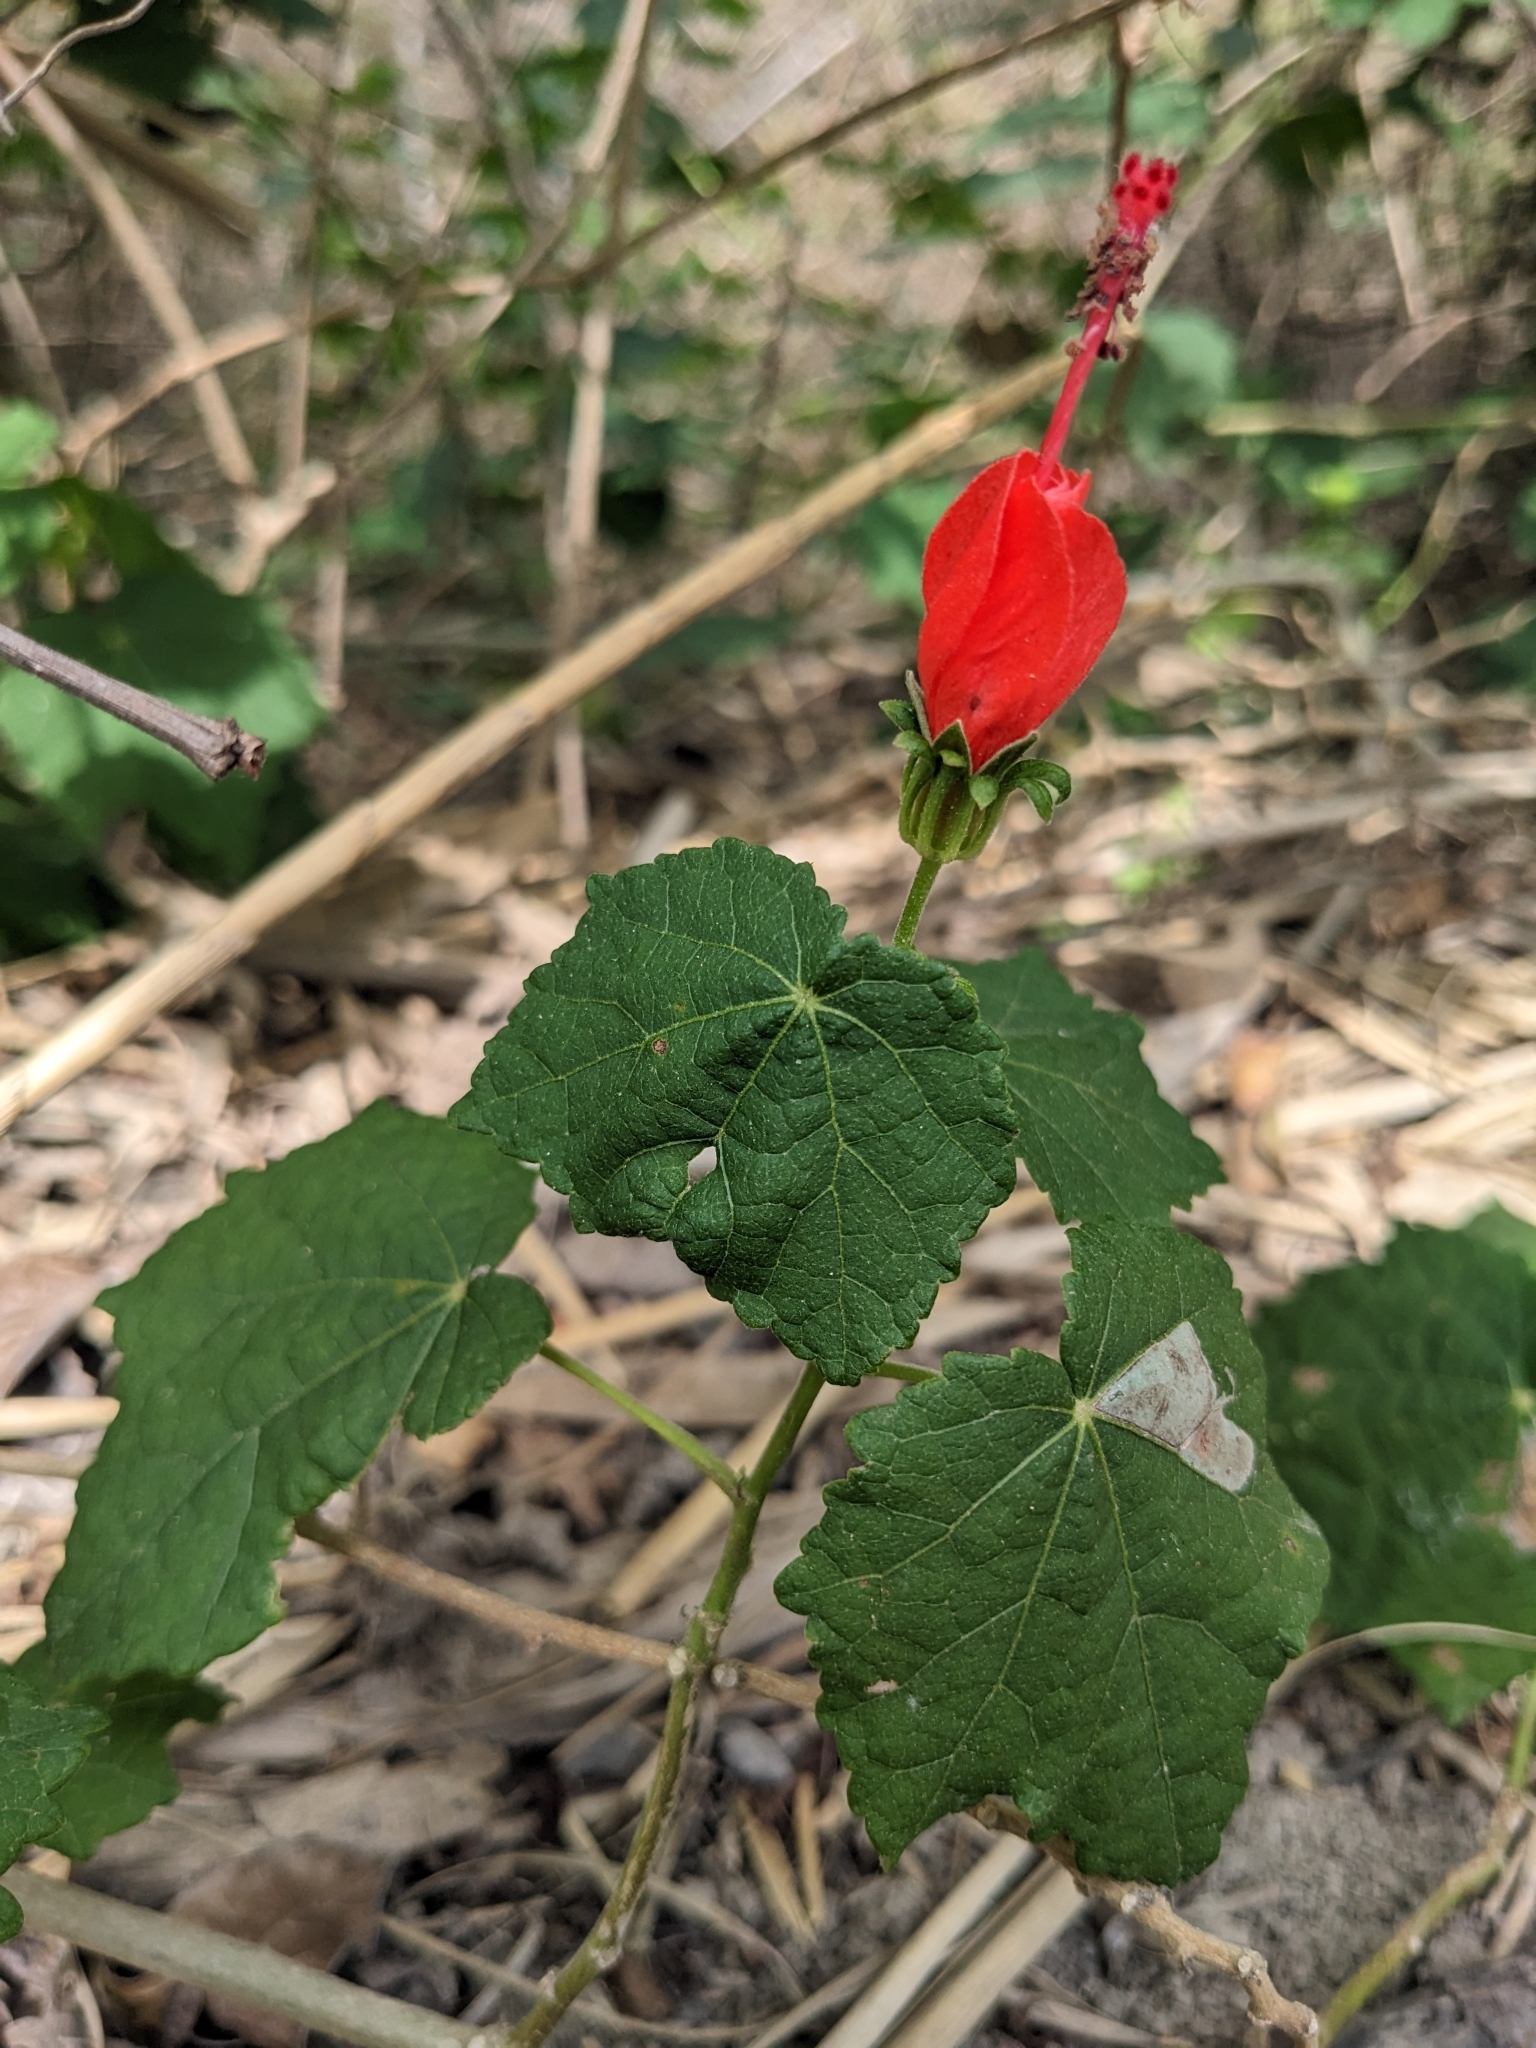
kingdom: Plantae
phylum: Tracheophyta
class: Magnoliopsida
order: Malvales
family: Malvaceae
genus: Malvaviscus
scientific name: Malvaviscus arboreus
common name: Wax mallow
